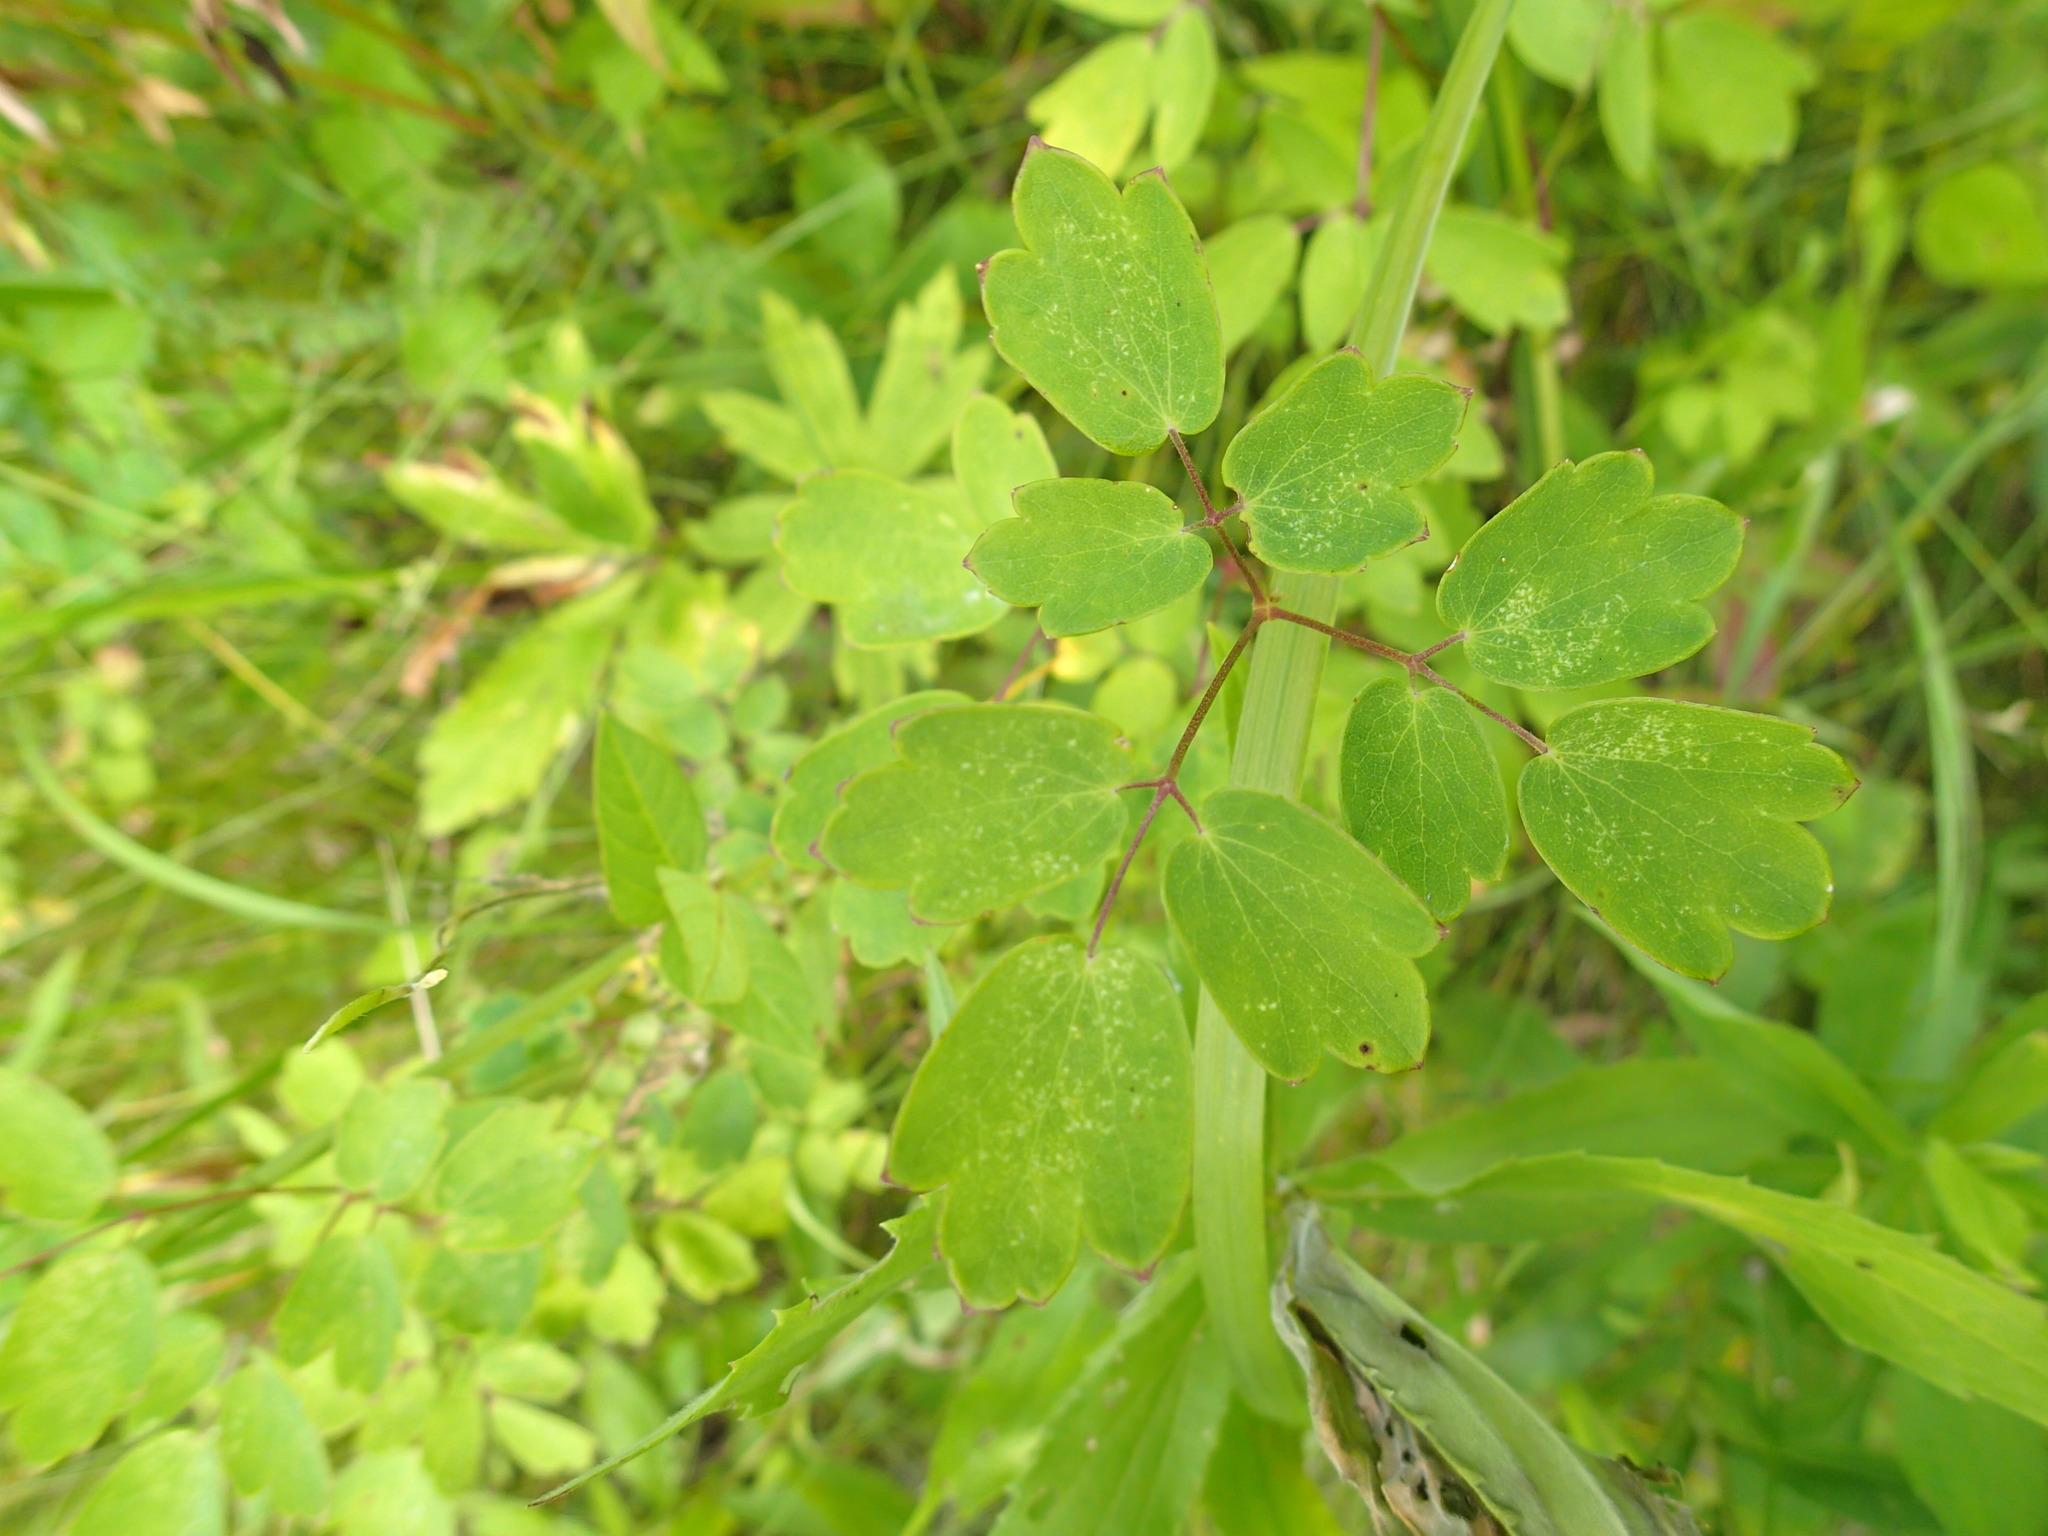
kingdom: Plantae
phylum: Tracheophyta
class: Magnoliopsida
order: Ranunculales
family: Ranunculaceae
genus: Thalictrum
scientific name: Thalictrum dasycarpum
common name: Purple meadow-rue
